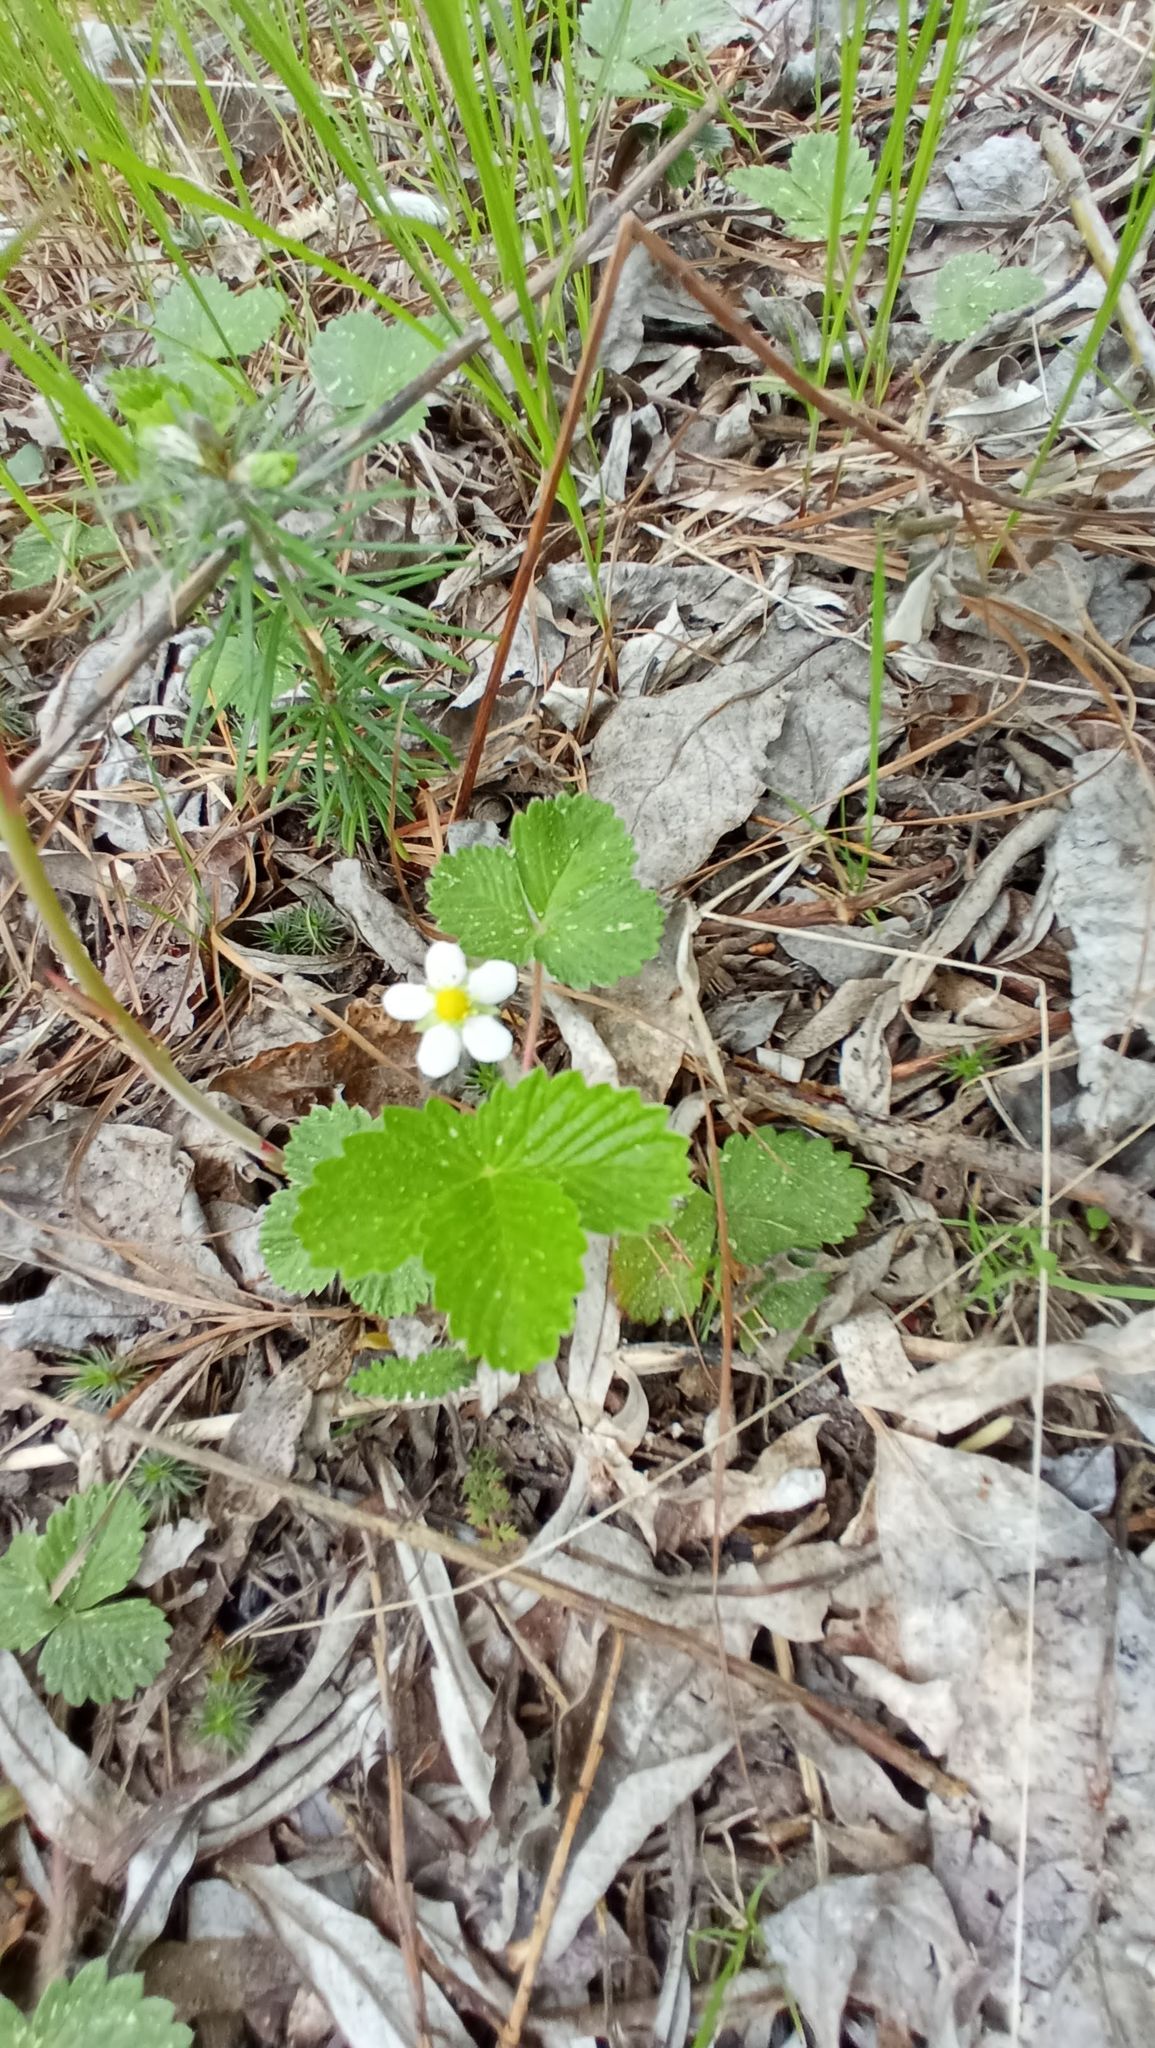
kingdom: Plantae
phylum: Tracheophyta
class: Magnoliopsida
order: Rosales
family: Rosaceae
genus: Fragaria
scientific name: Fragaria vesca
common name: Wild strawberry
